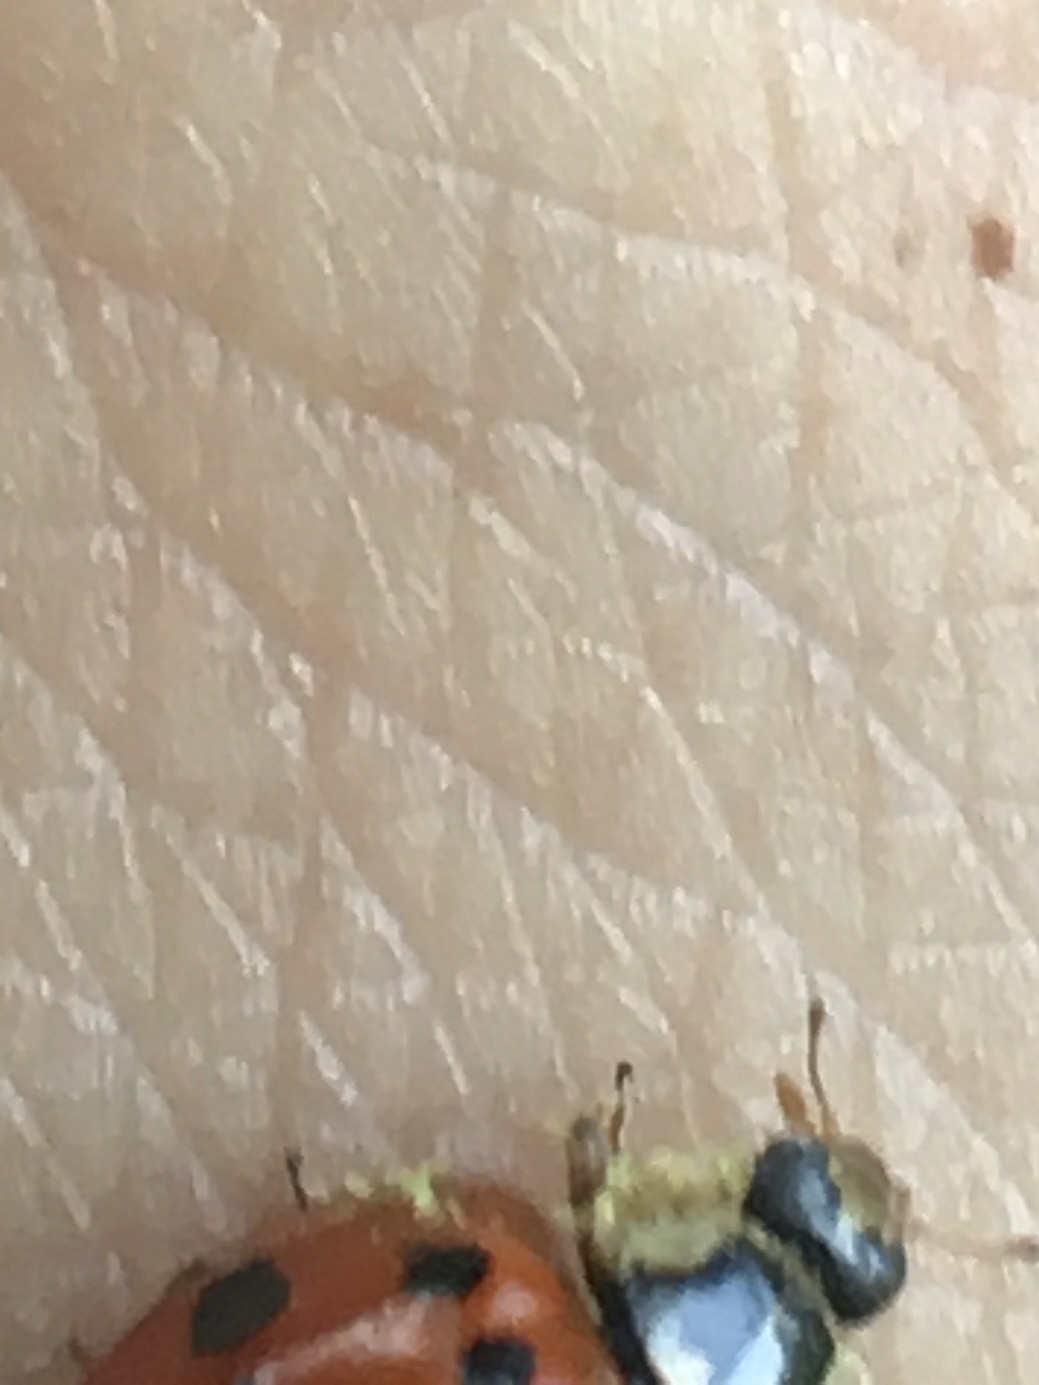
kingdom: Fungi
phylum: Ascomycota
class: Laboulbeniomycetes
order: Laboulbeniales
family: Laboulbeniaceae
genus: Hesperomyces
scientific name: Hesperomyces harmoniae
